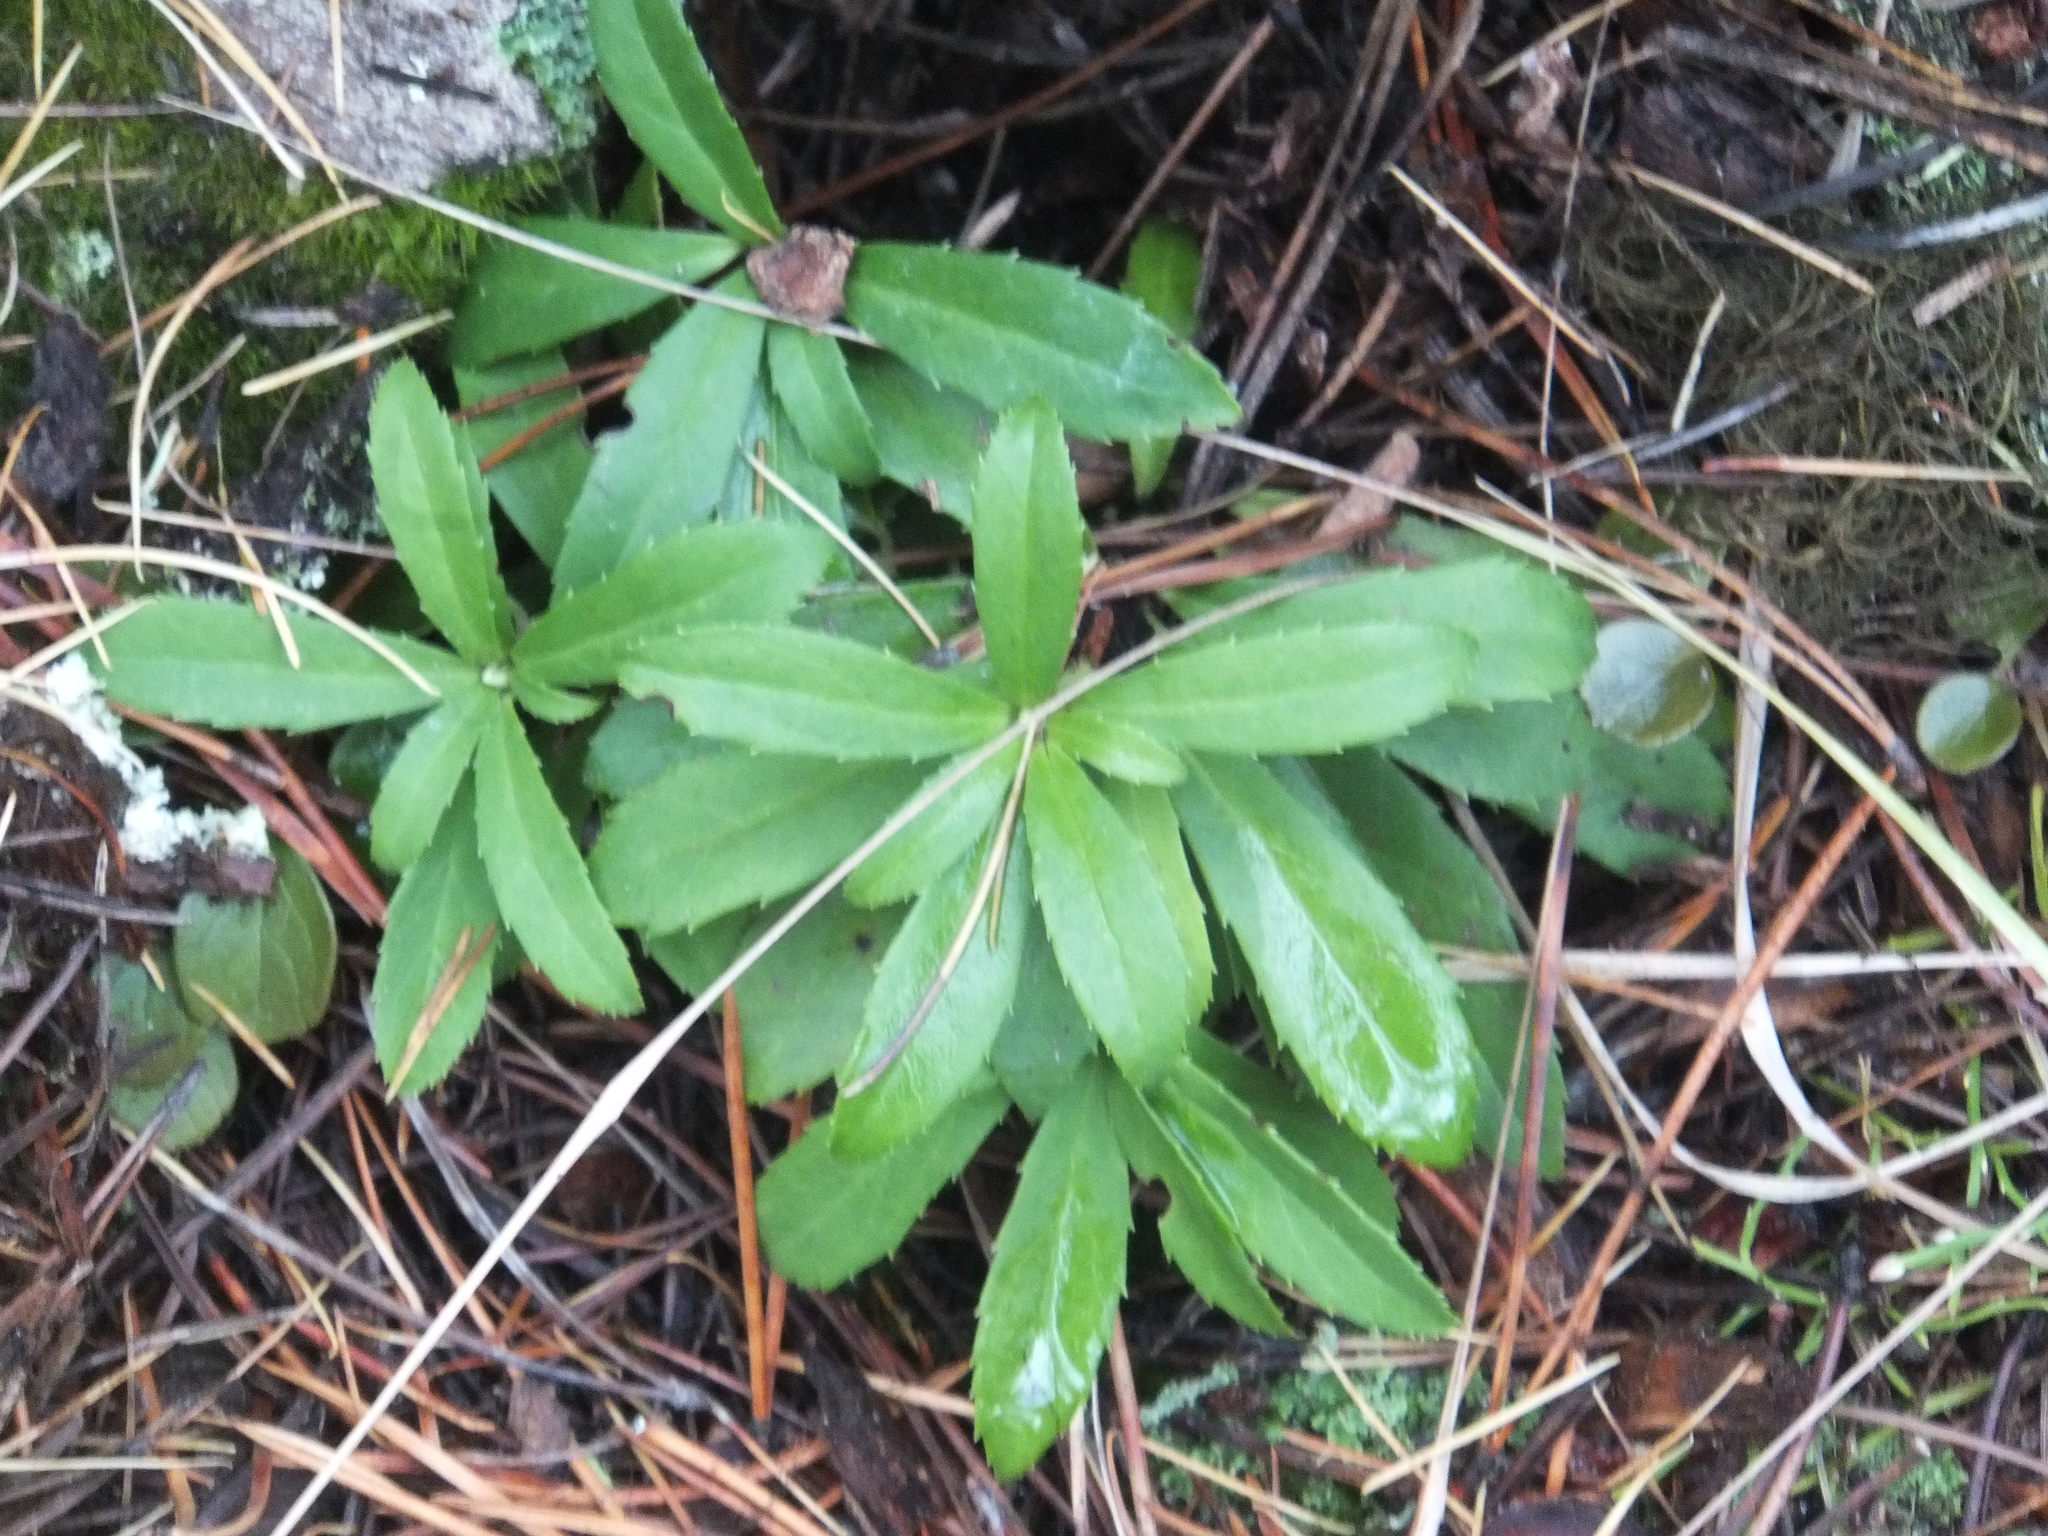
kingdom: Plantae
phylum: Tracheophyta
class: Magnoliopsida
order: Ericales
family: Ericaceae
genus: Chimaphila
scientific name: Chimaphila umbellata
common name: Pipsissewa
